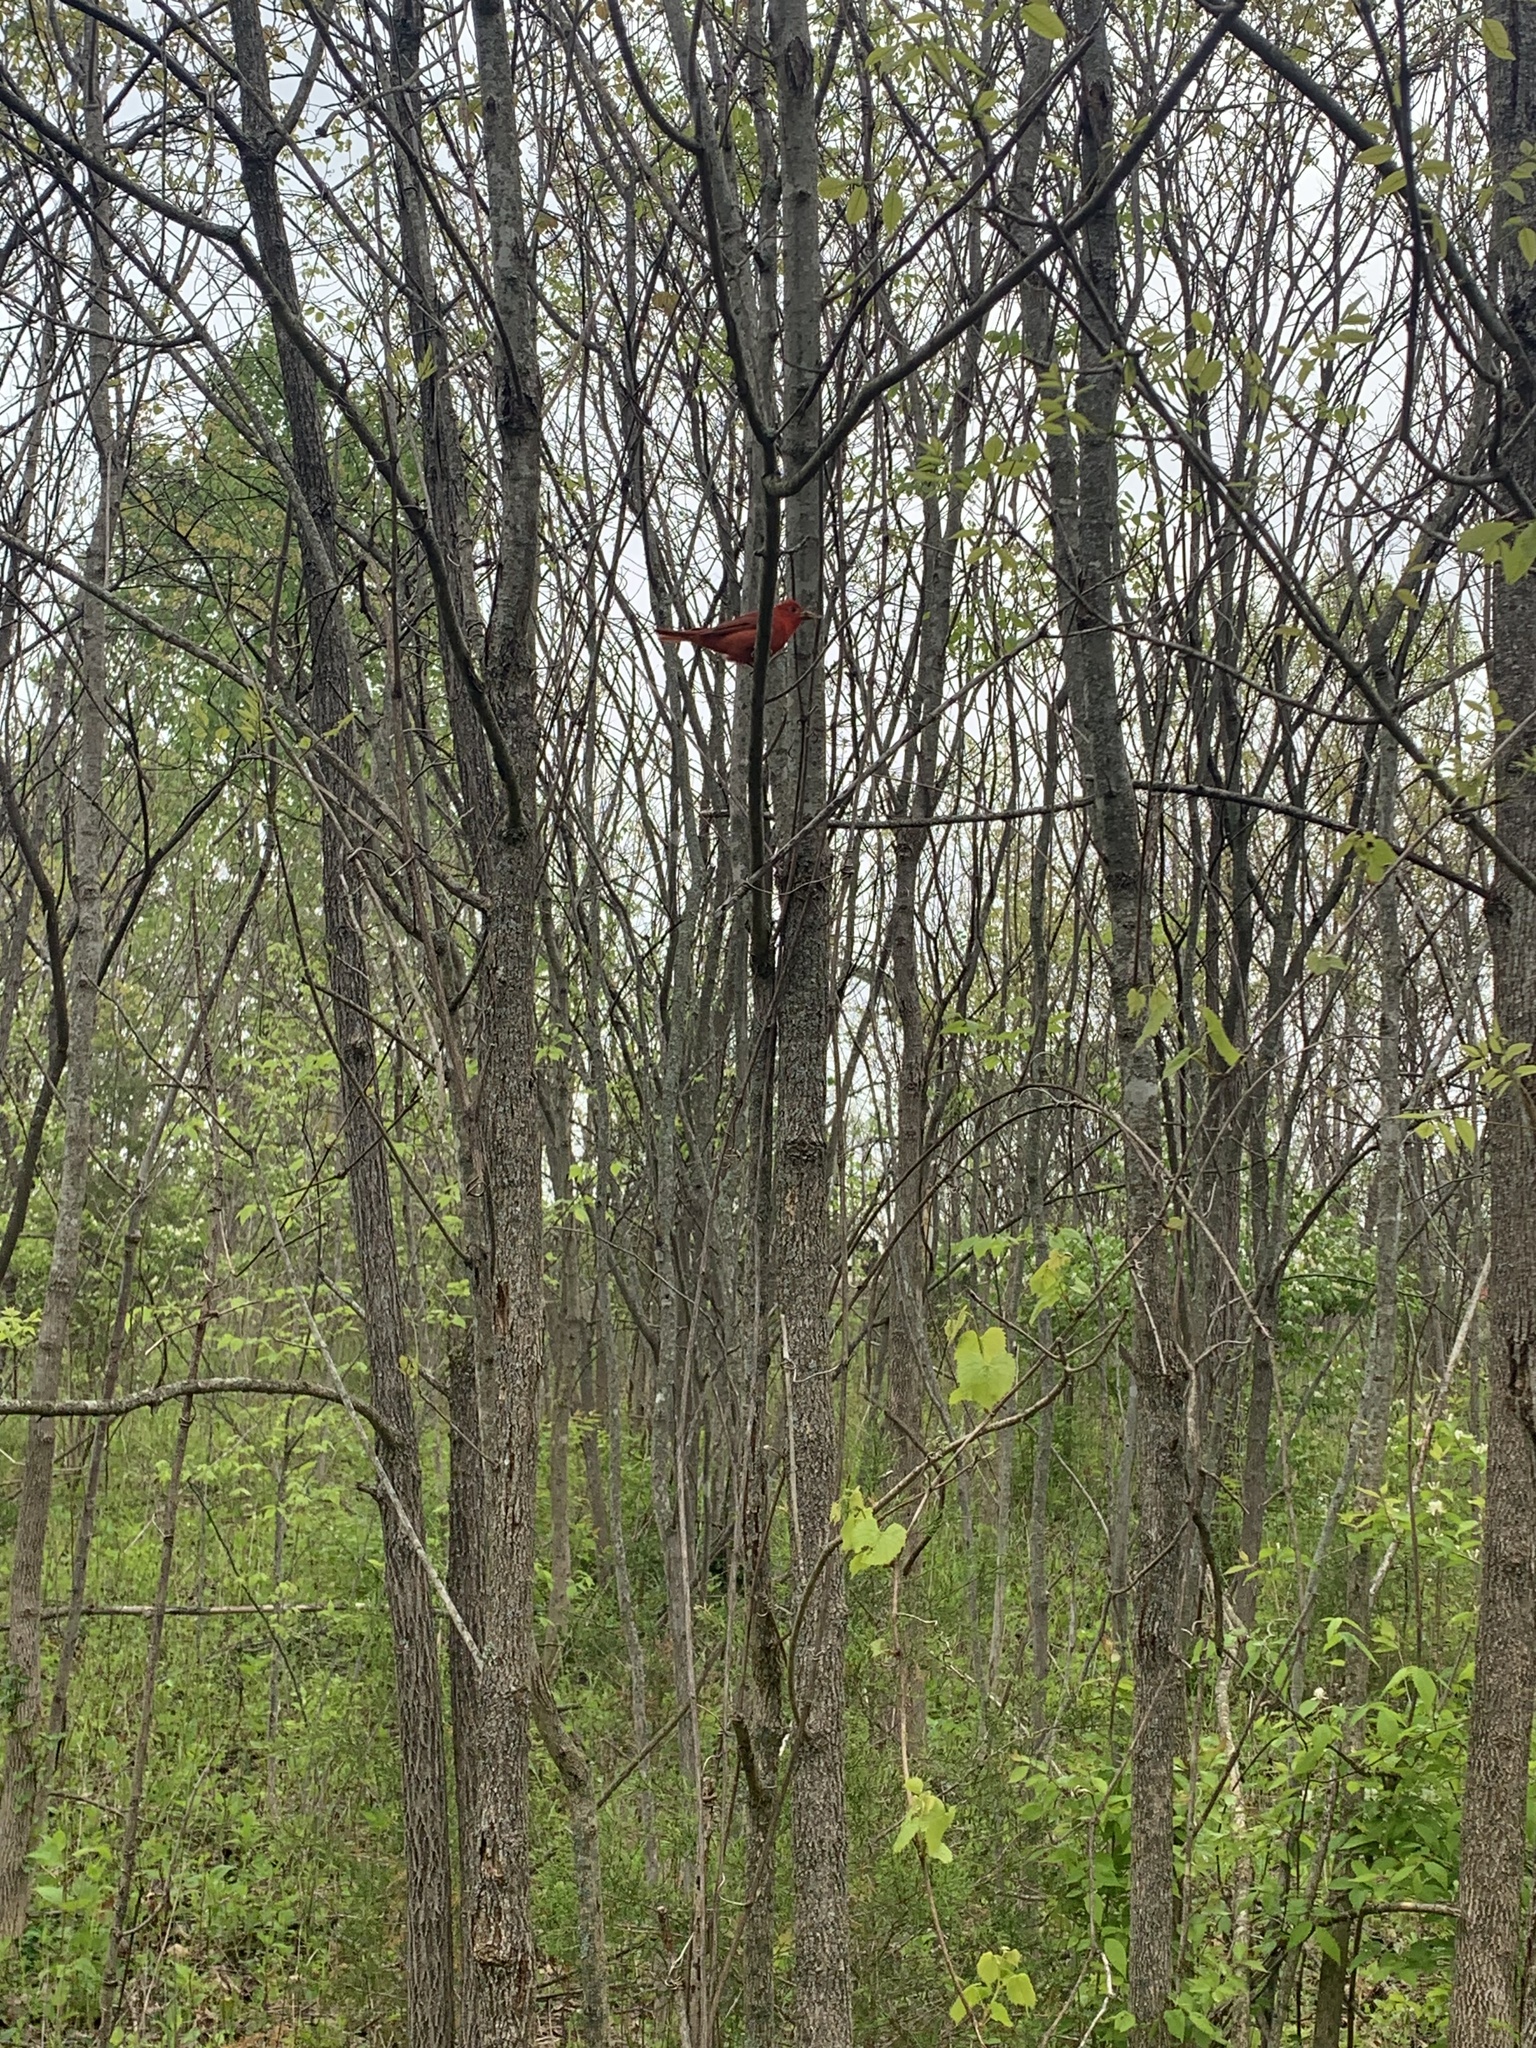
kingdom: Animalia
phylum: Chordata
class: Aves
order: Passeriformes
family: Cardinalidae
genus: Piranga
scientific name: Piranga rubra
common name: Summer tanager
